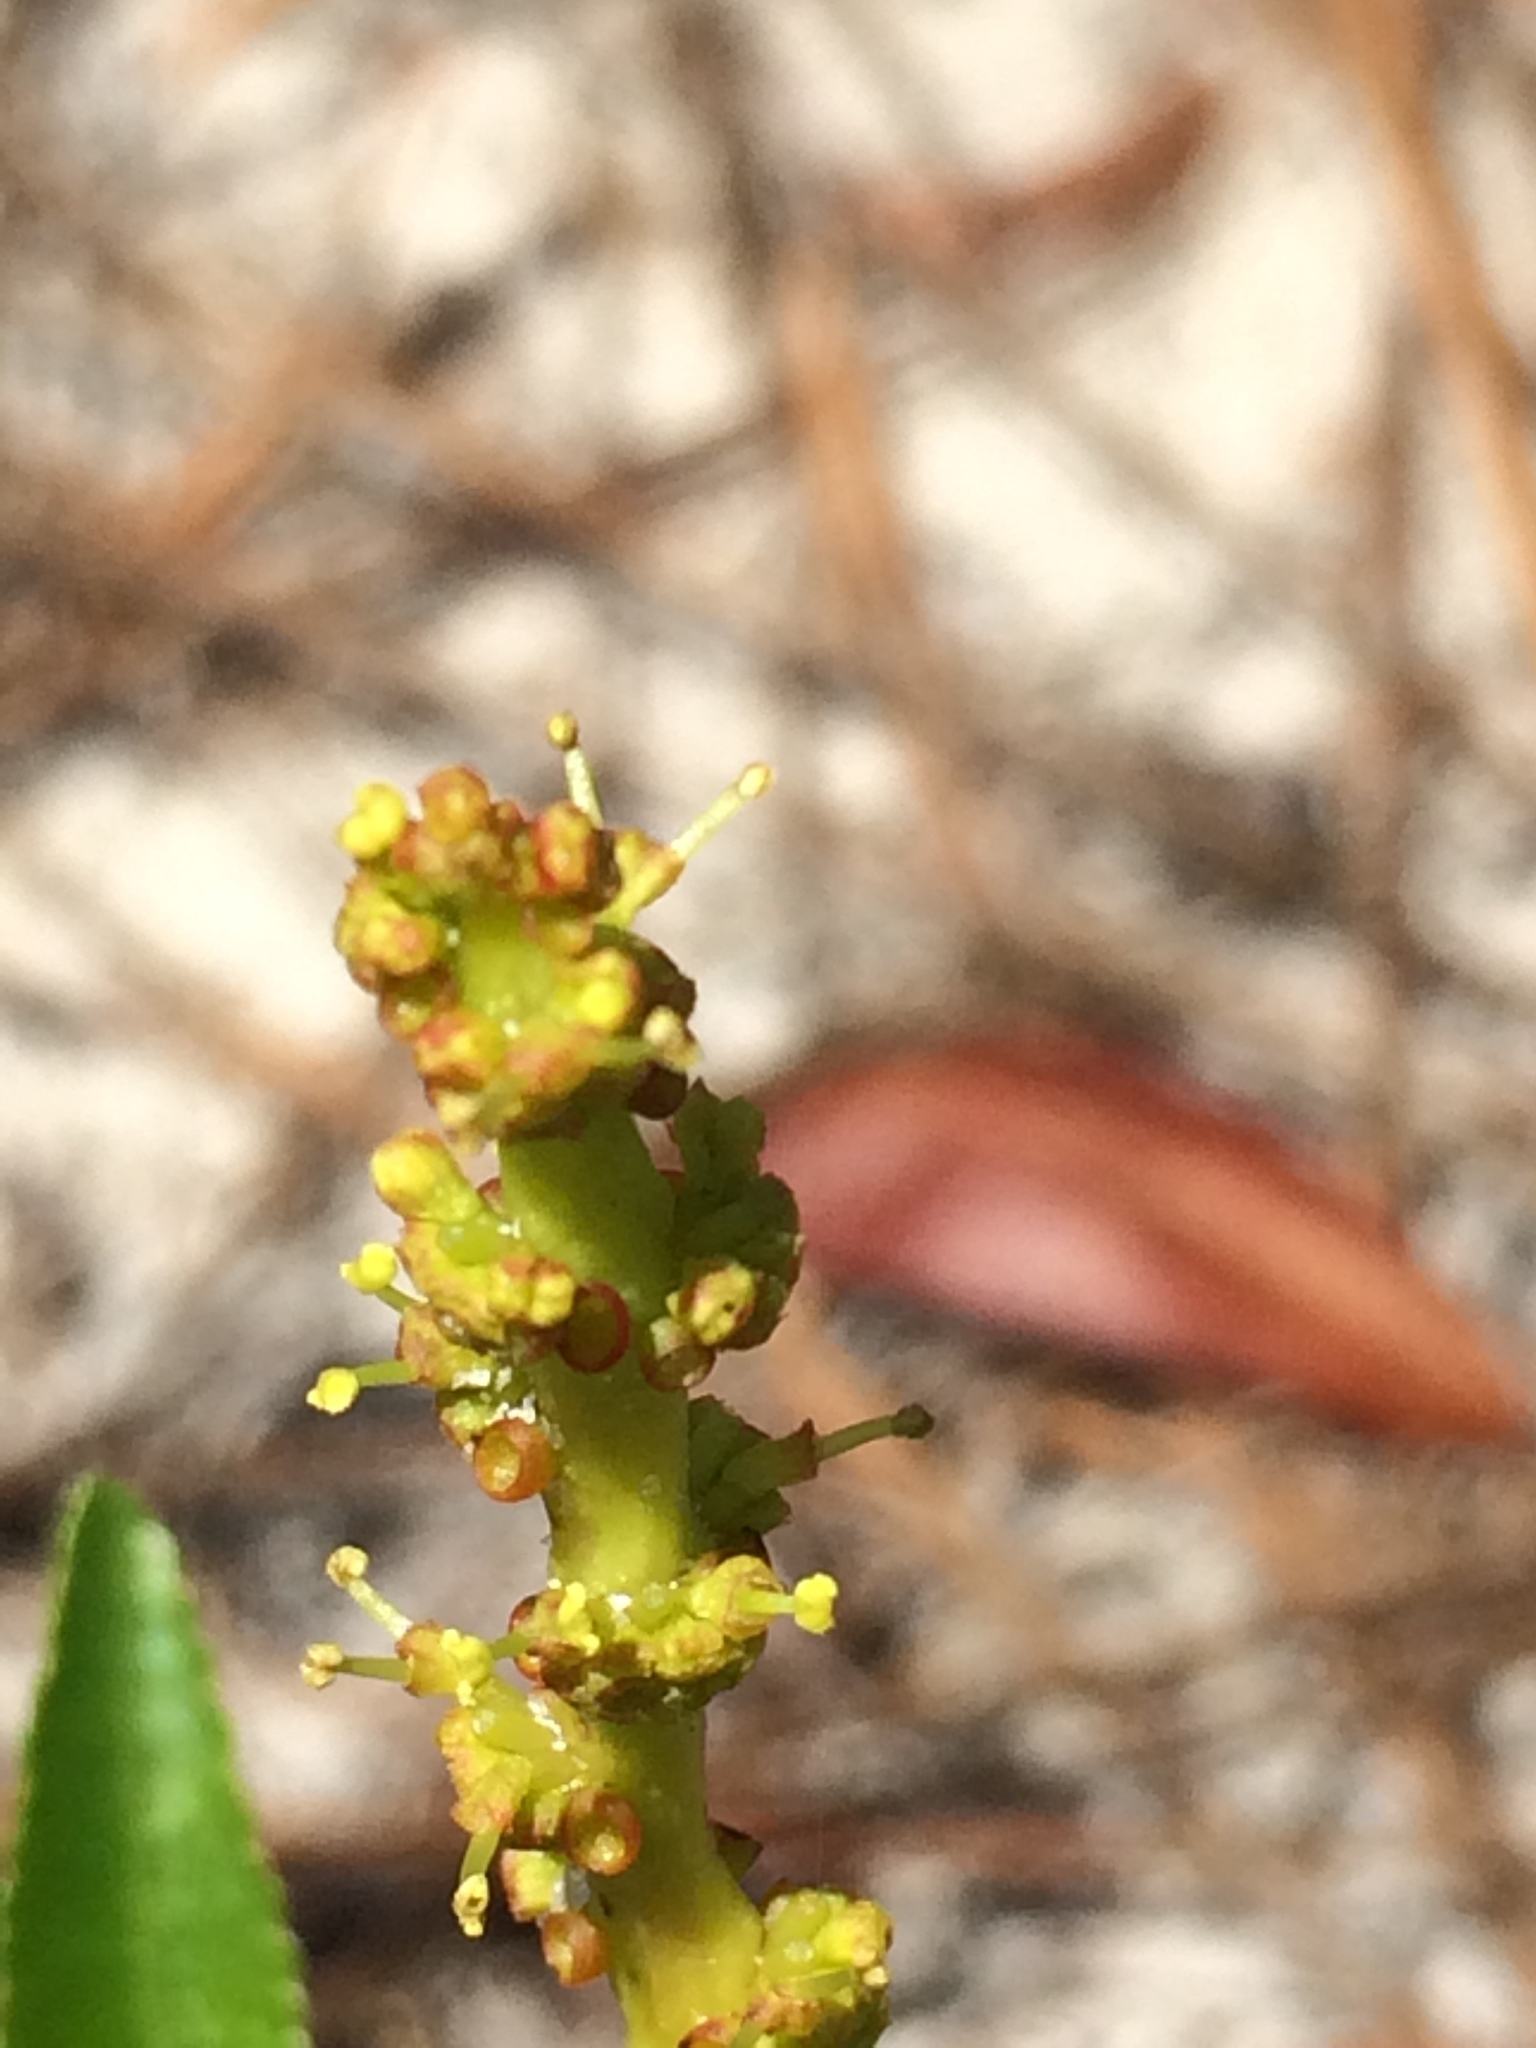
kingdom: Plantae
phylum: Tracheophyta
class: Magnoliopsida
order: Malpighiales
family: Euphorbiaceae
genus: Stillingia
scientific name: Stillingia sylvatica
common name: Queen's-delight
